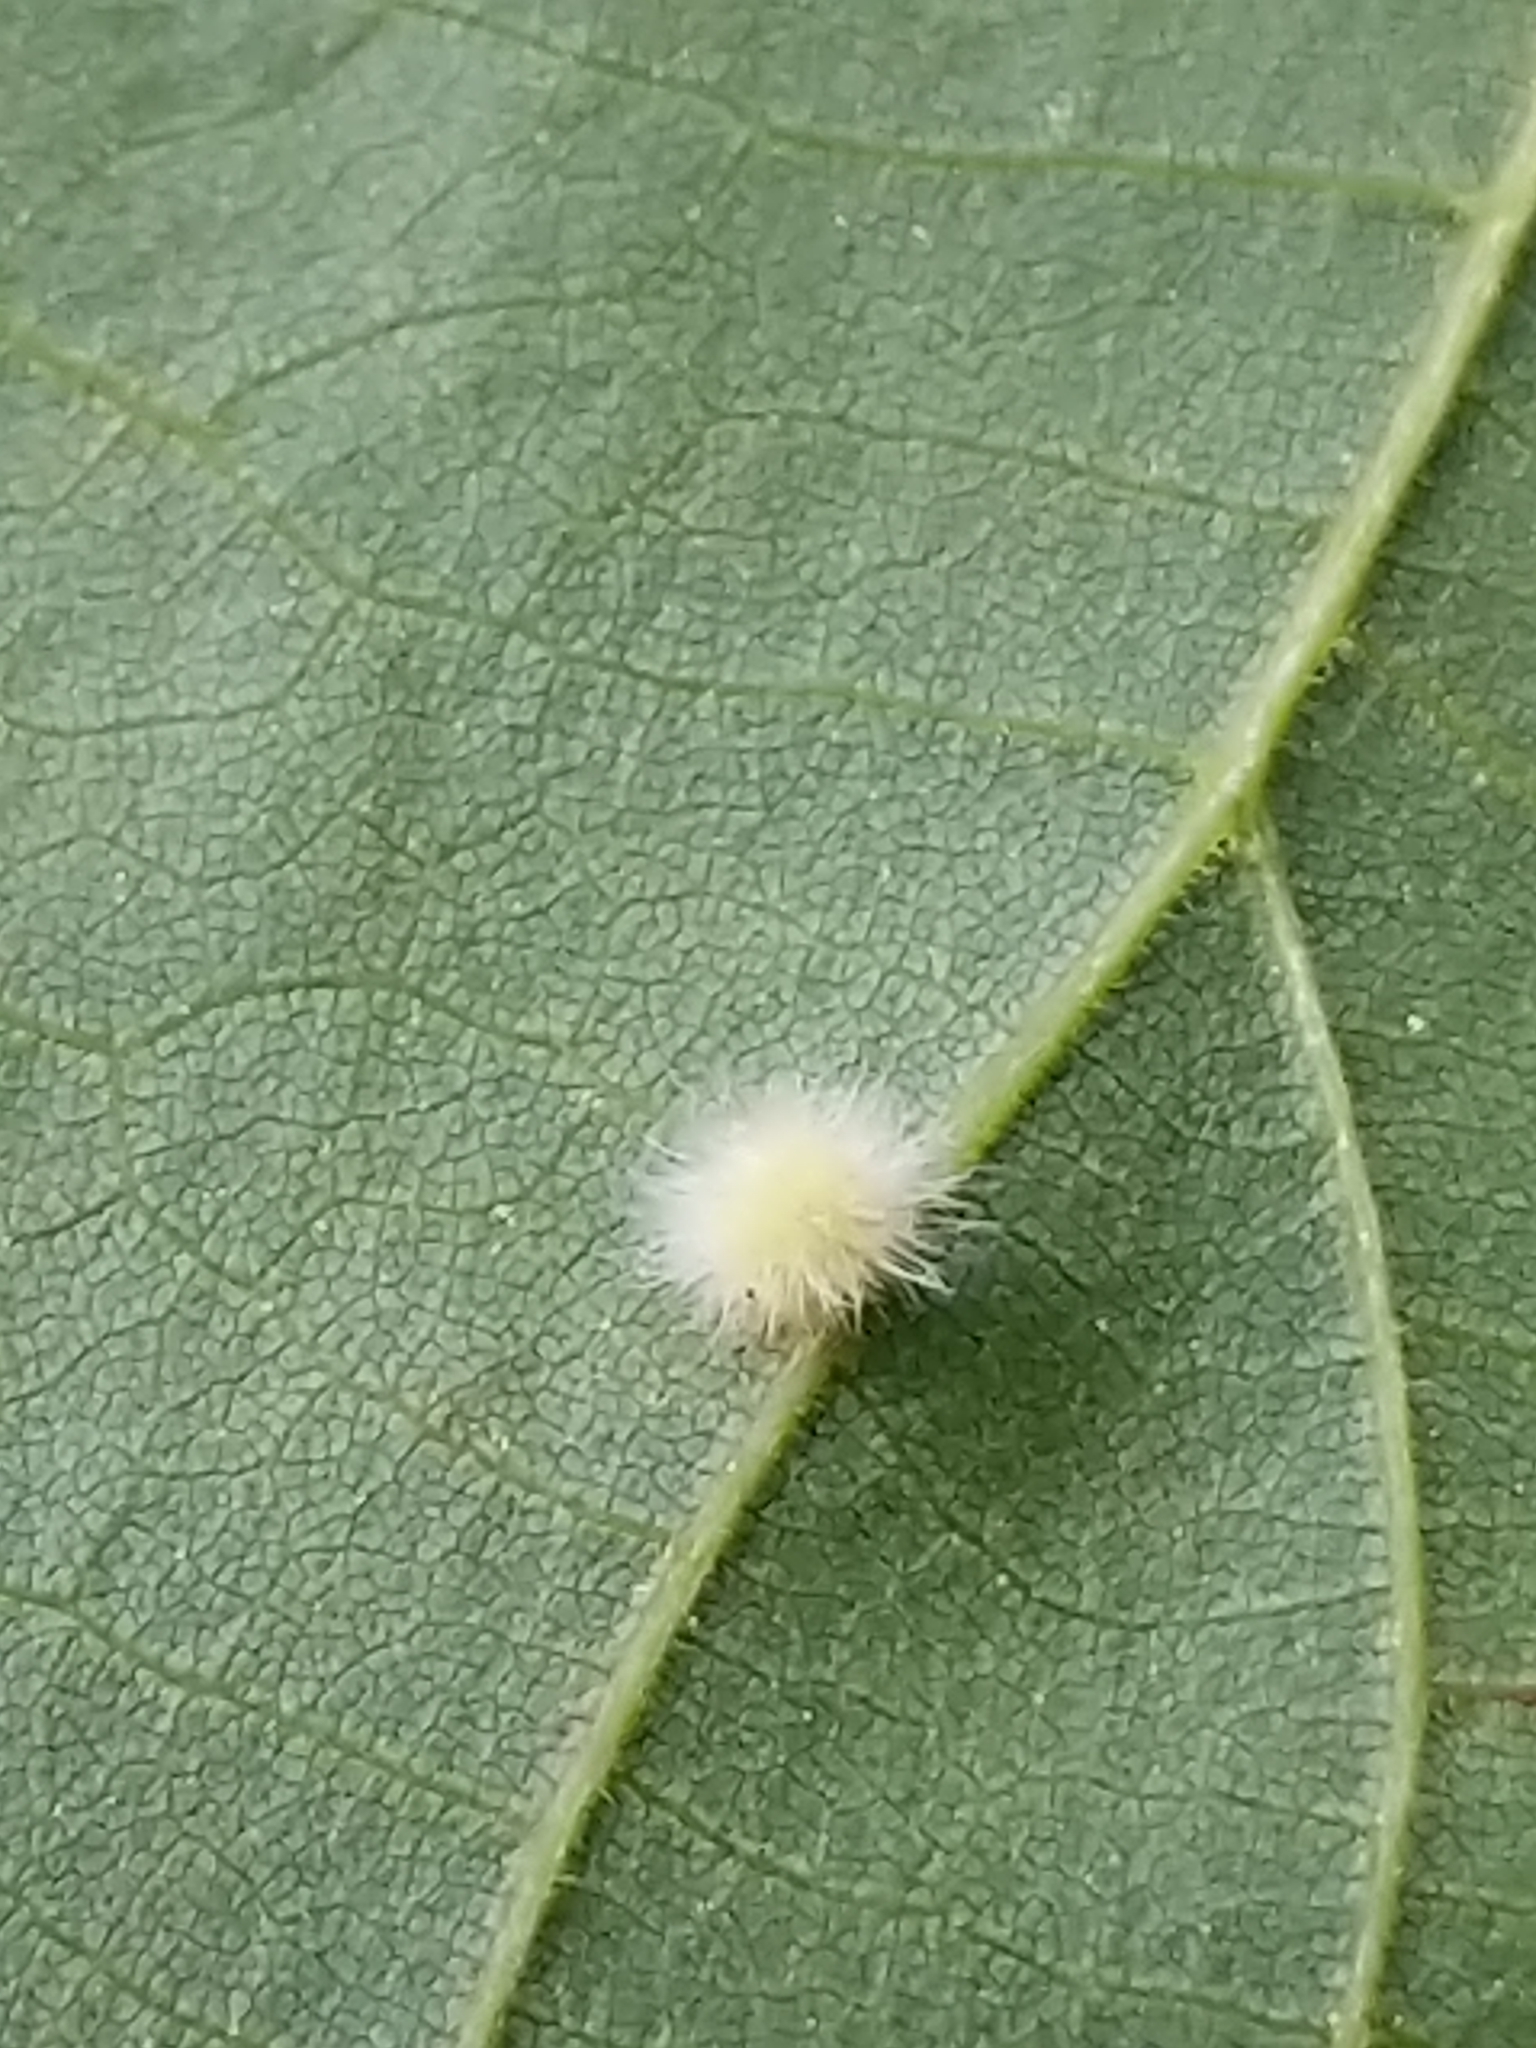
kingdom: Animalia
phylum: Arthropoda
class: Insecta
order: Diptera
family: Cecidomyiidae
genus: Caryomyia
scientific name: Caryomyia
